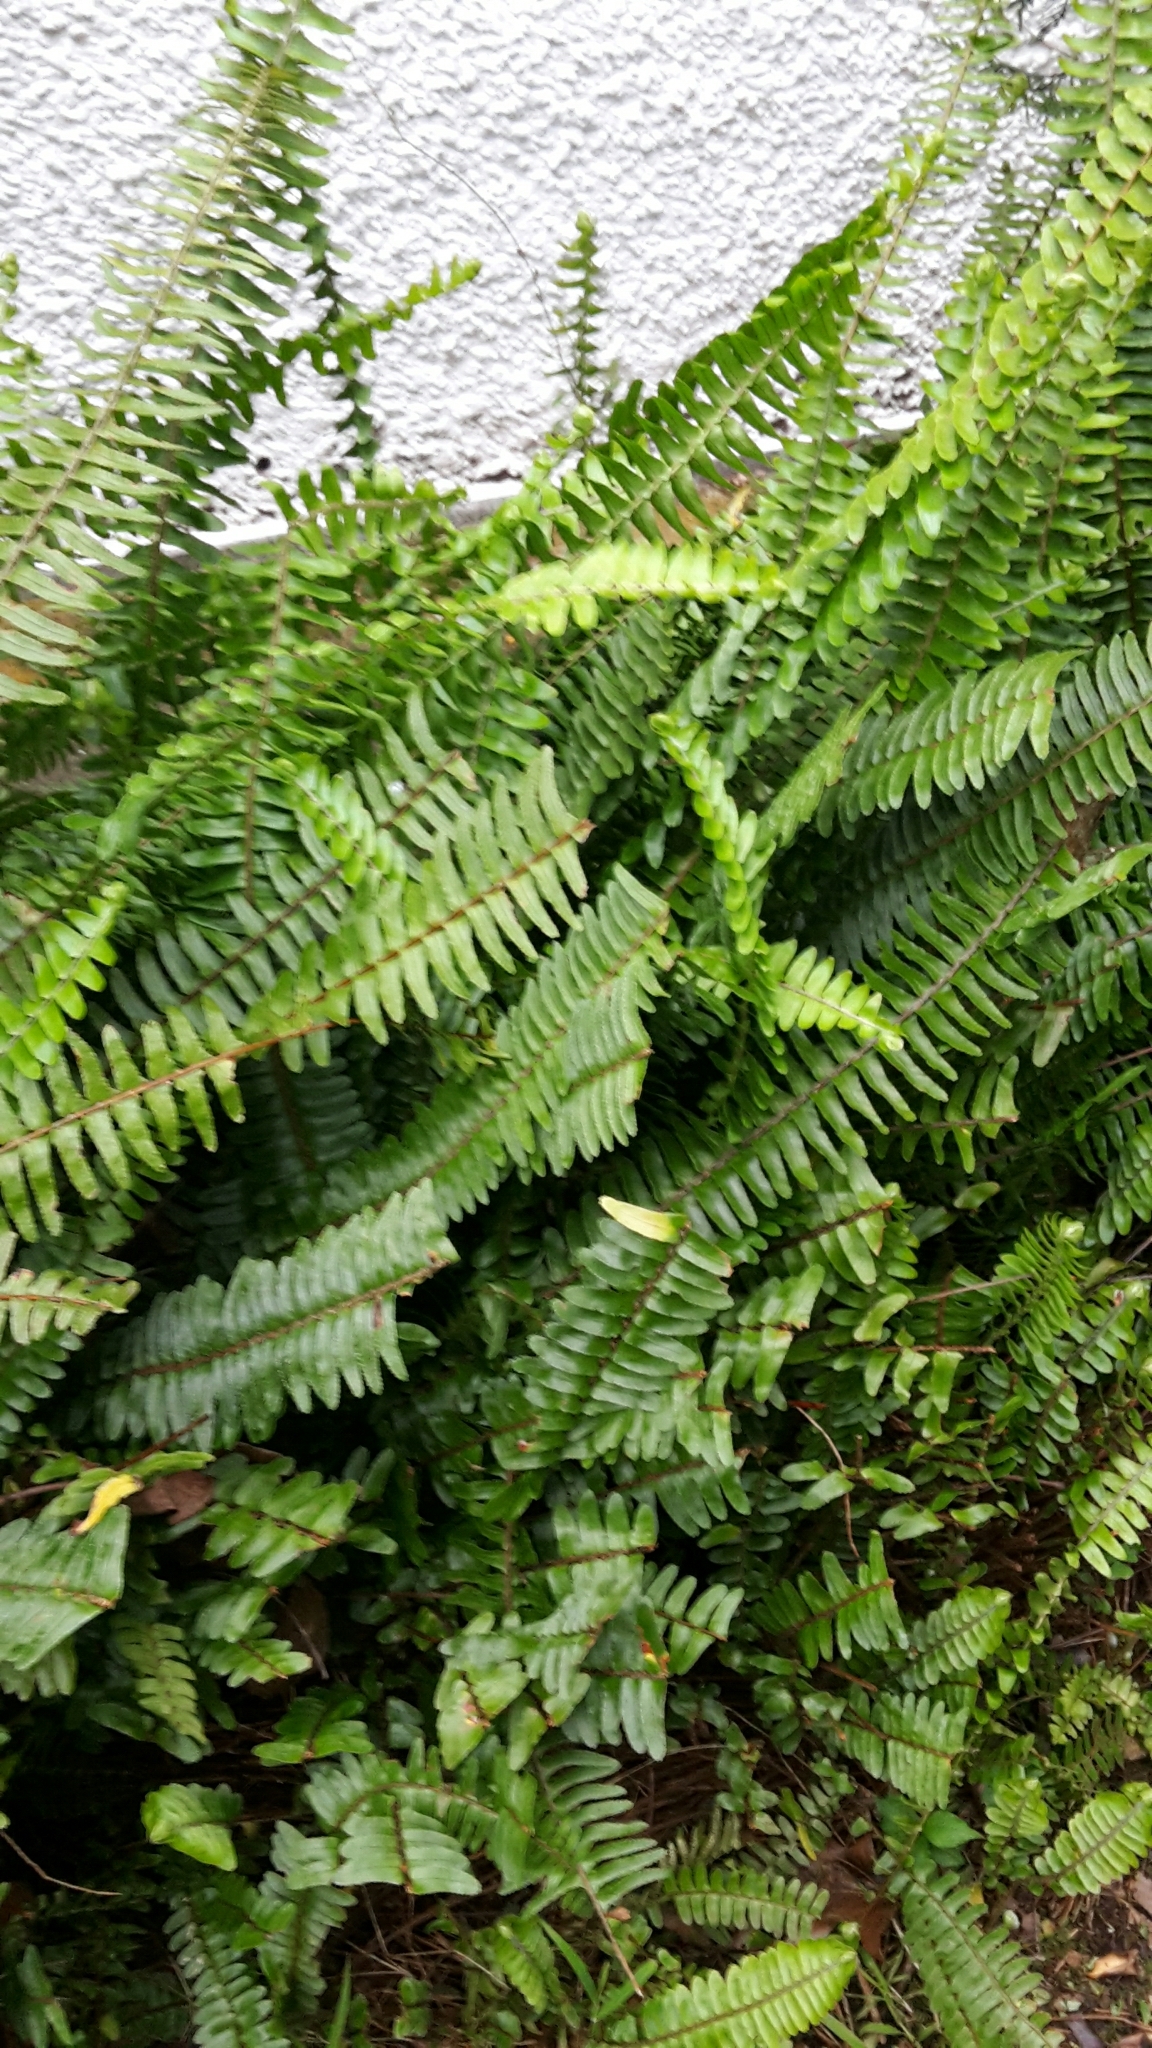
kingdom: Plantae
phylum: Tracheophyta
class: Polypodiopsida
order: Polypodiales
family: Nephrolepidaceae
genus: Nephrolepis
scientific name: Nephrolepis cordifolia
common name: Narrow swordfern
